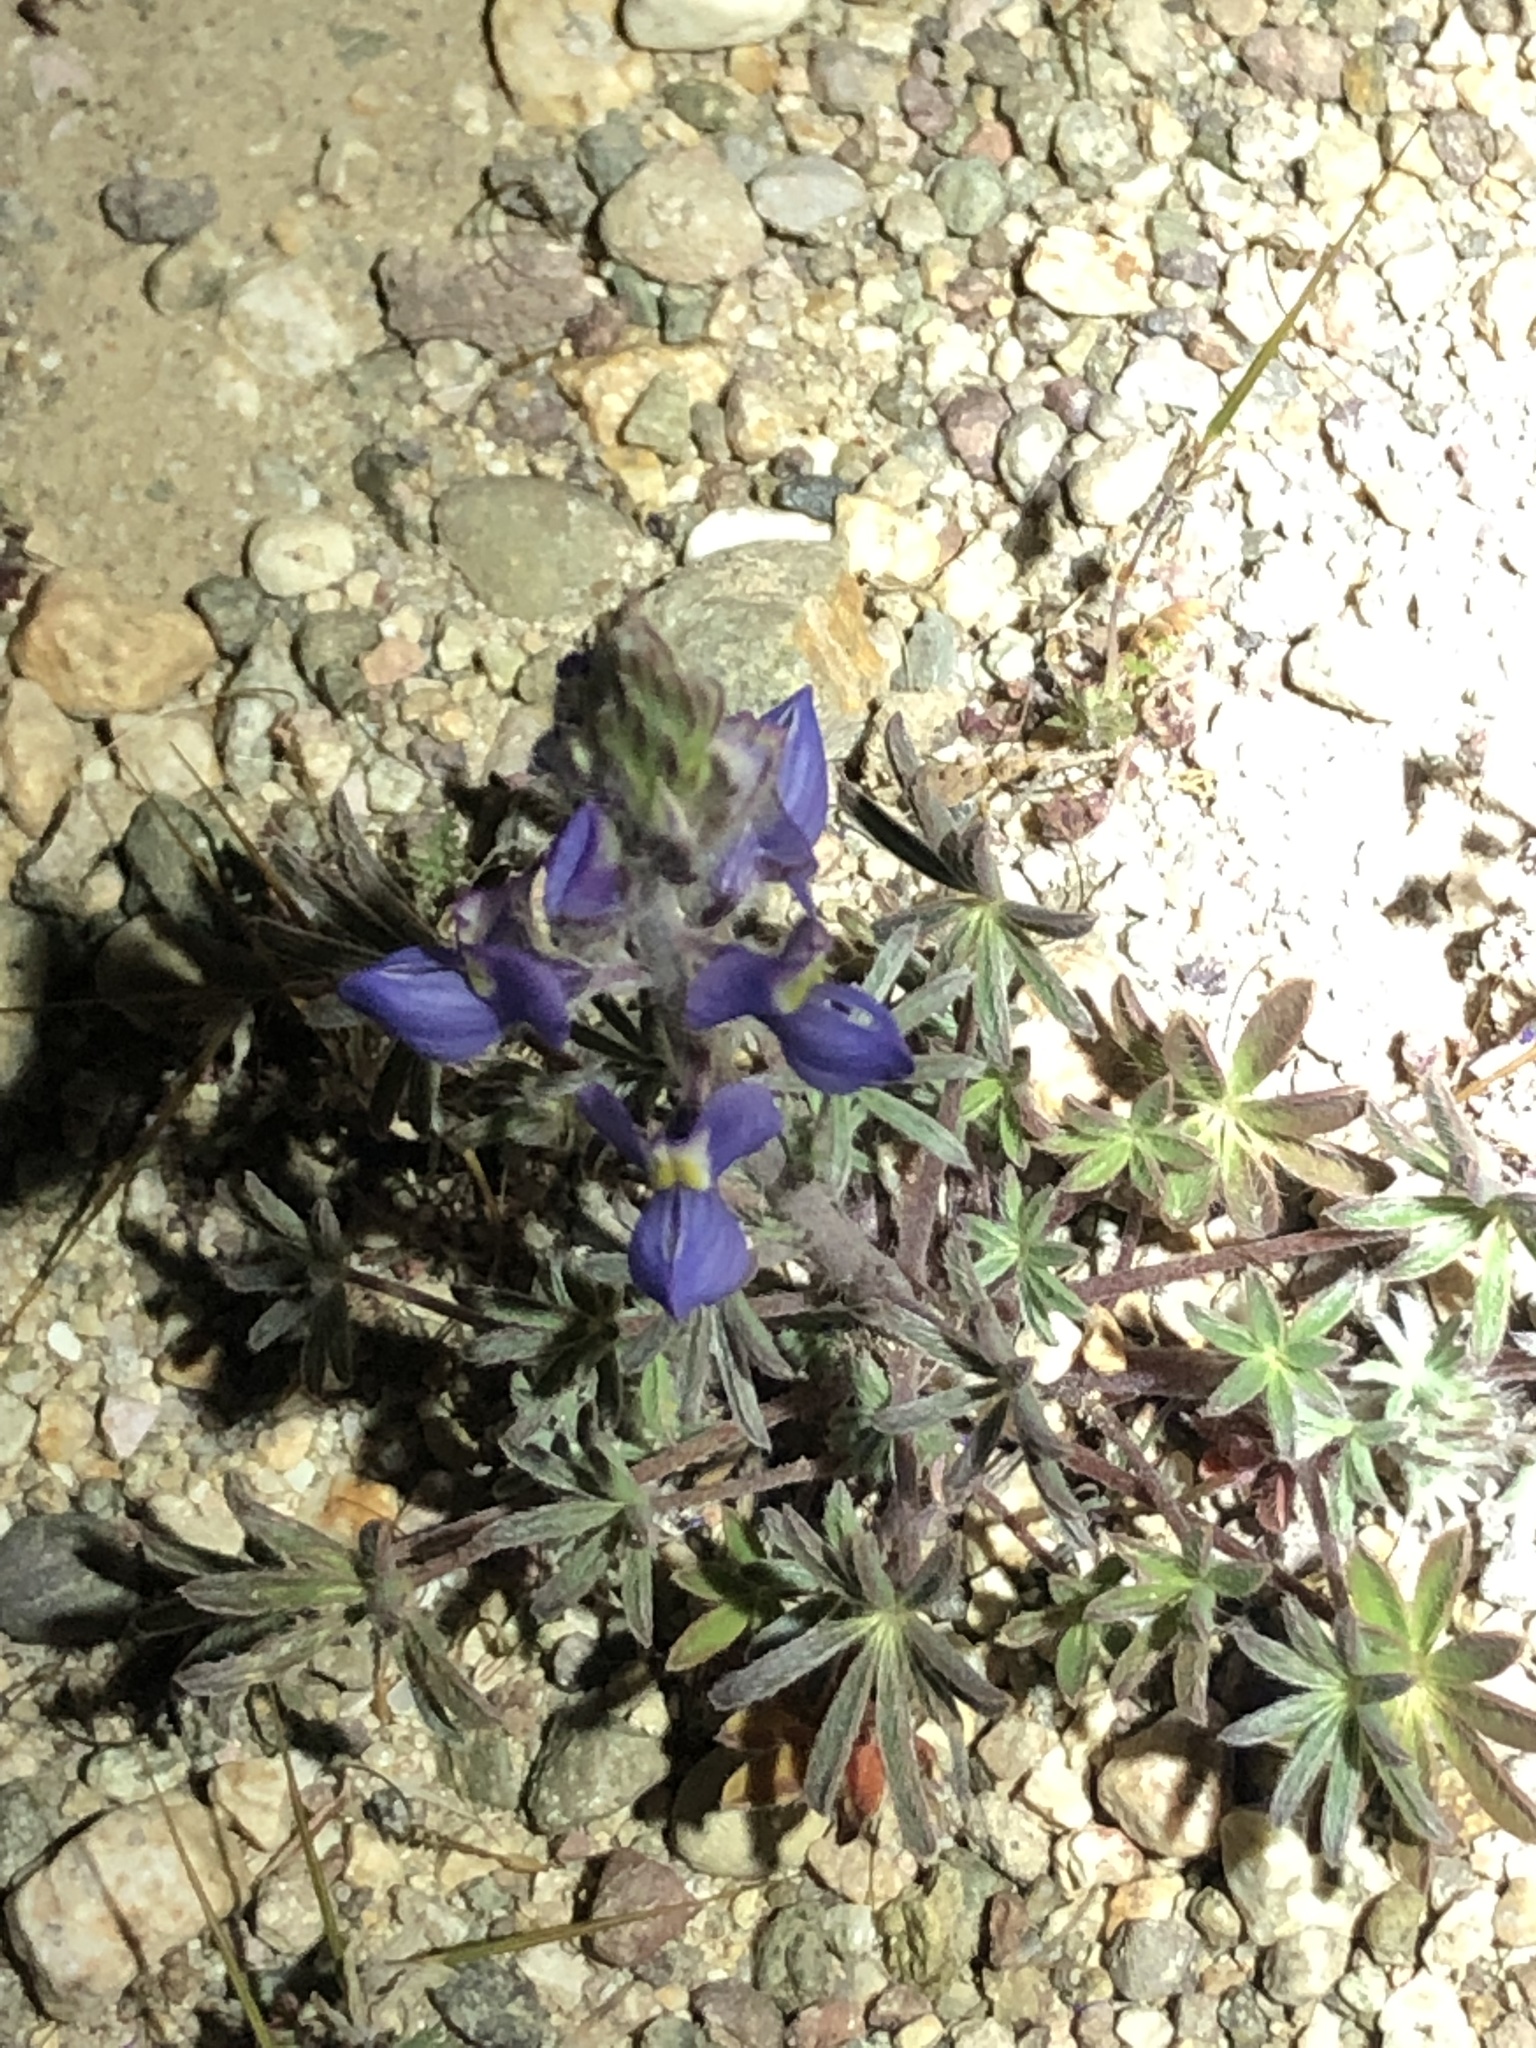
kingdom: Plantae
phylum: Tracheophyta
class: Magnoliopsida
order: Fabales
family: Fabaceae
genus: Lupinus
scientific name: Lupinus sparsiflorus
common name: Coulter's lupine
